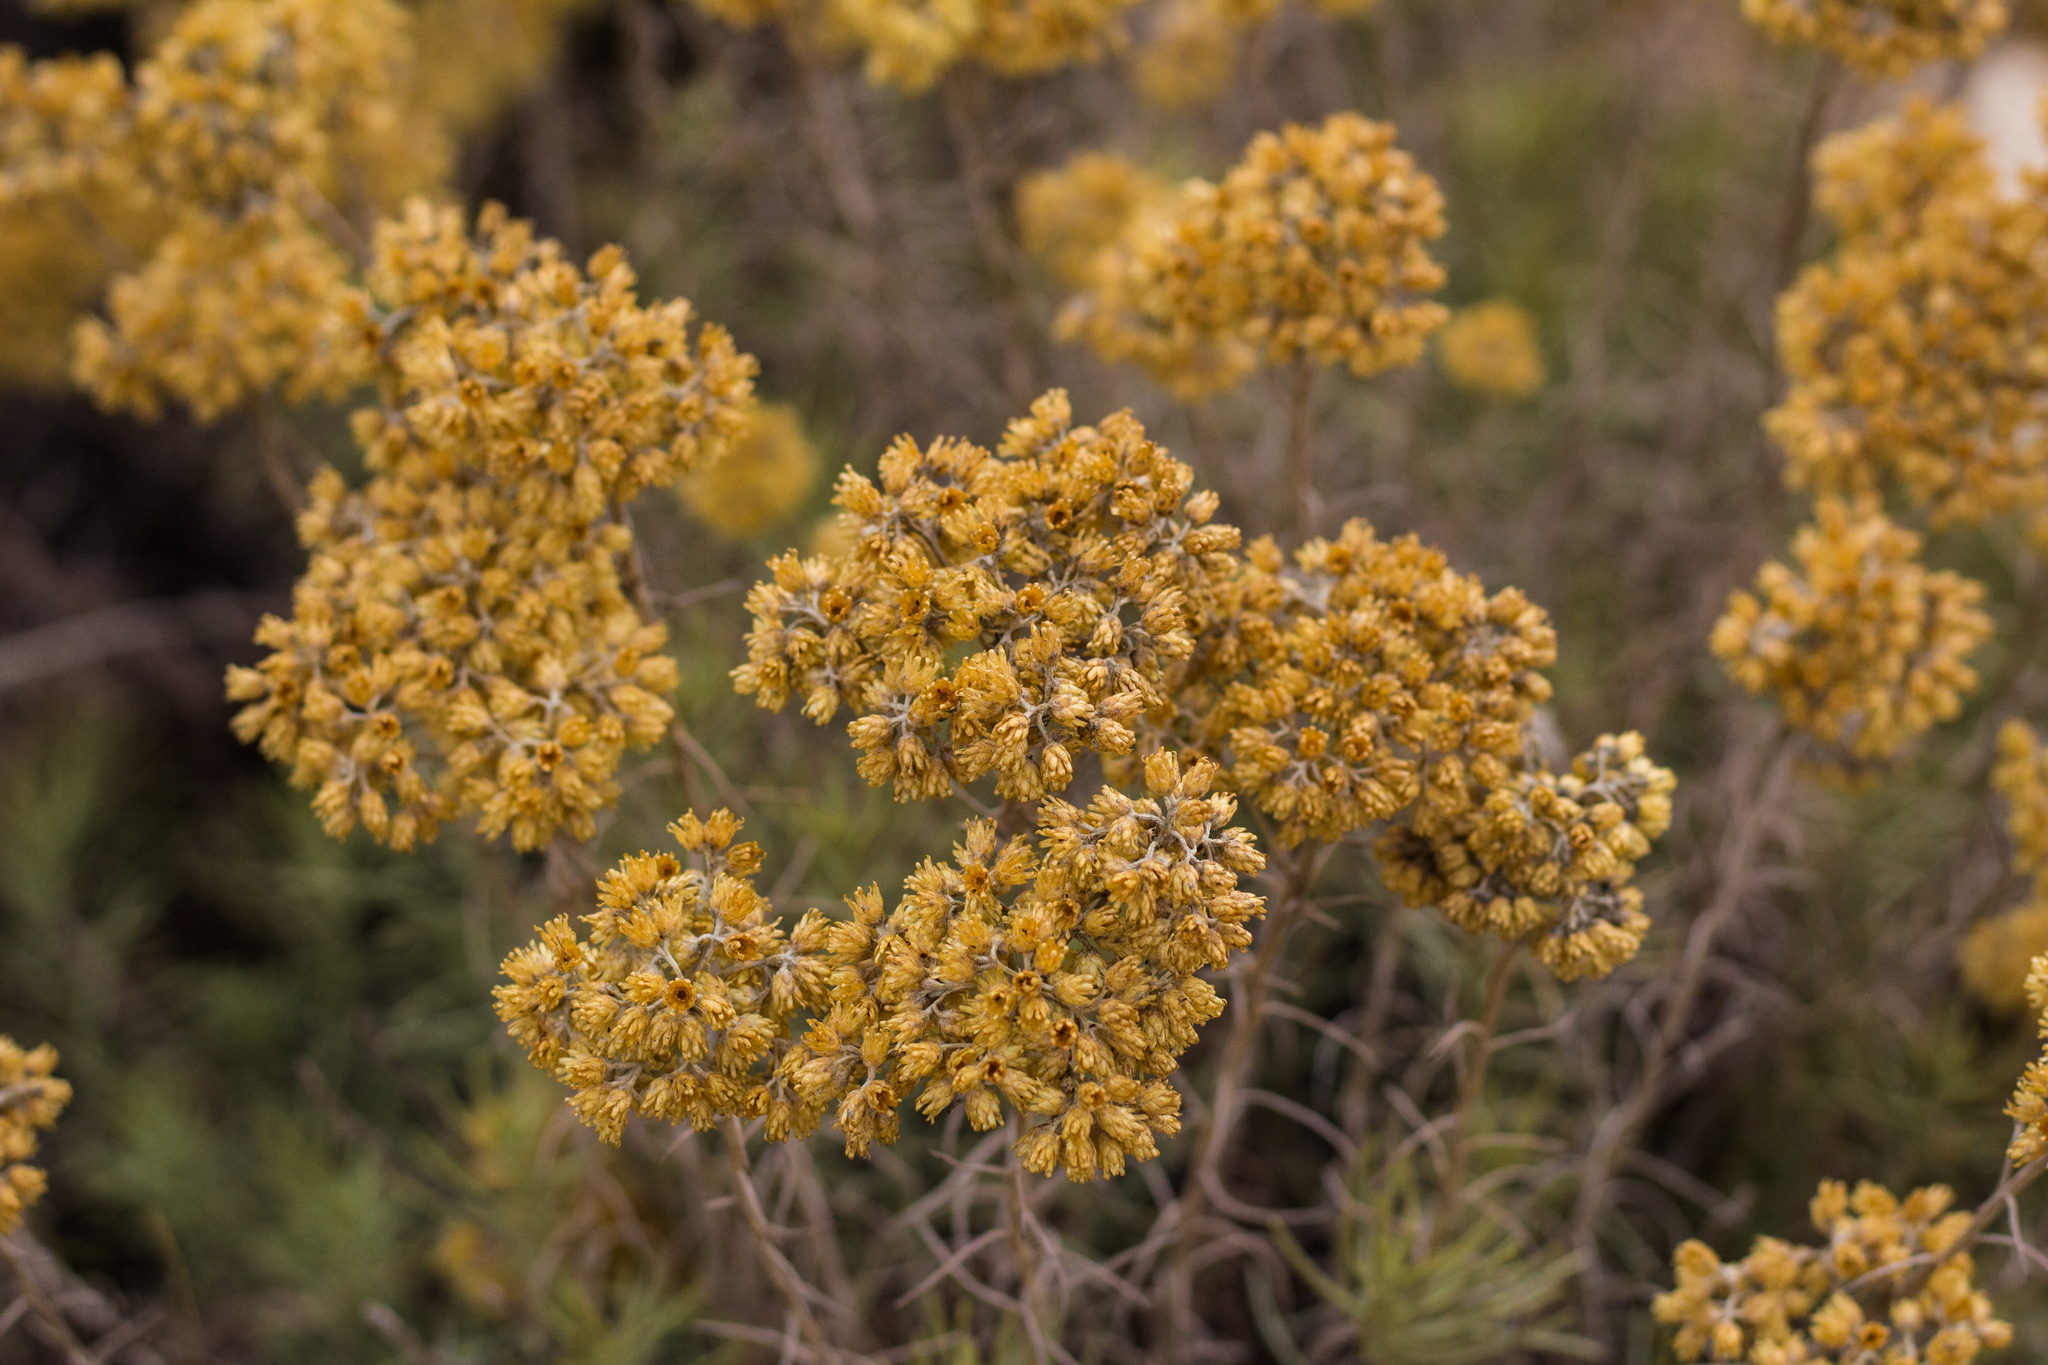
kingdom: Plantae
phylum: Tracheophyta
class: Magnoliopsida
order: Asterales
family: Asteraceae
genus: Helichrysum
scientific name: Helichrysum serotinum
